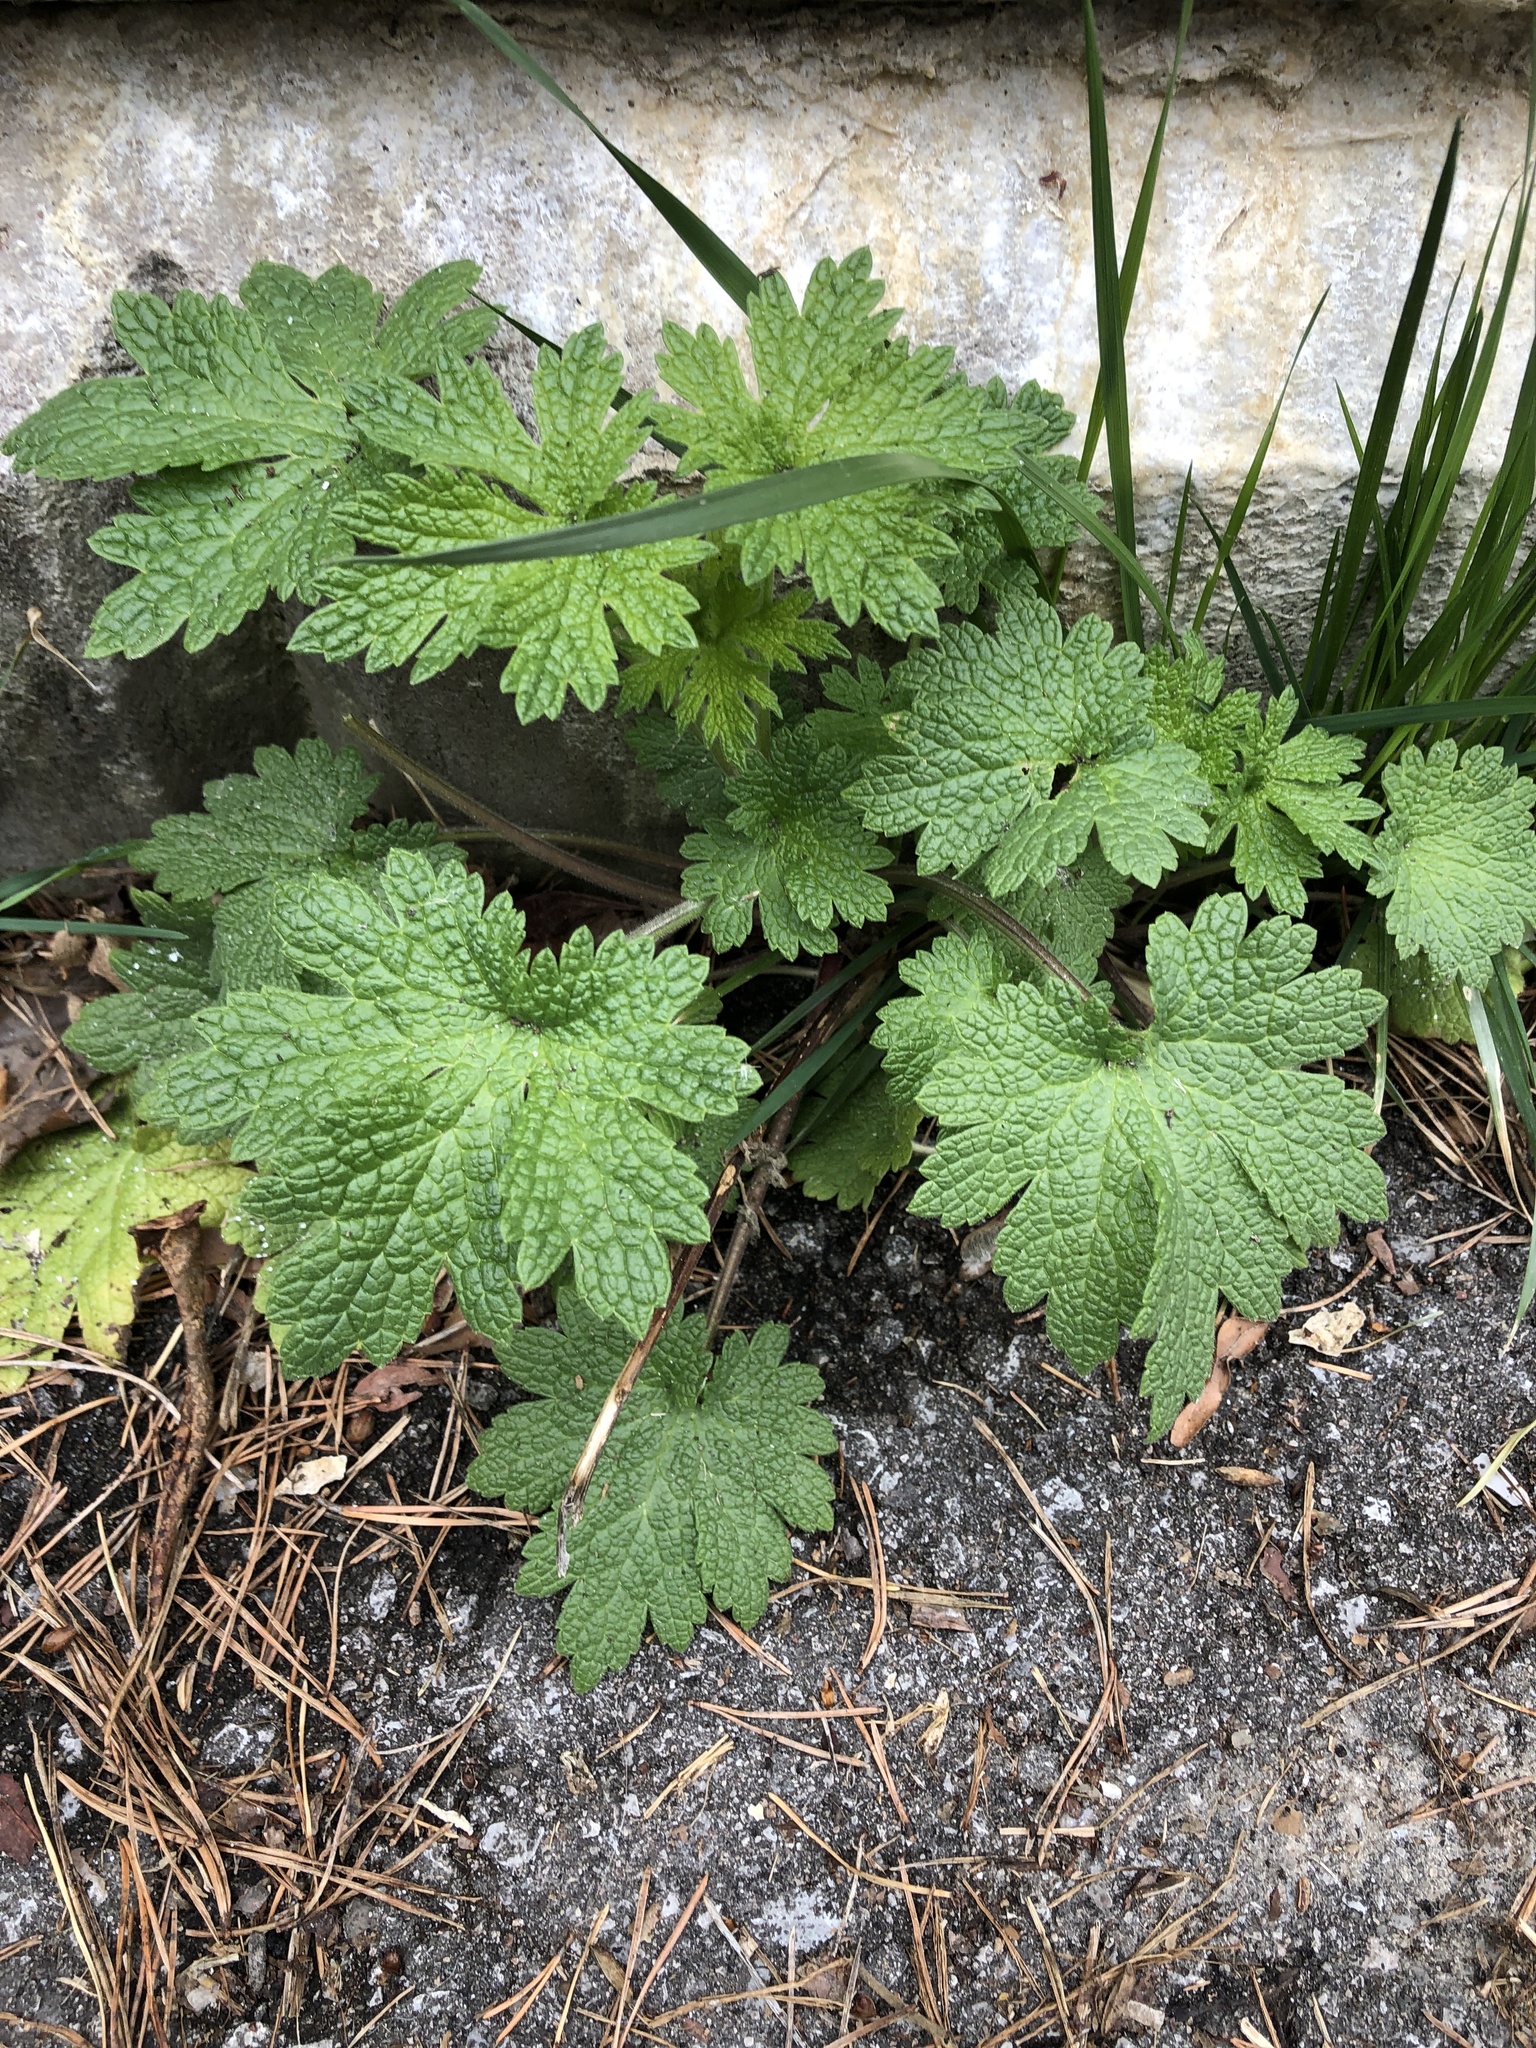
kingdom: Plantae
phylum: Tracheophyta
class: Magnoliopsida
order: Lamiales
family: Lamiaceae
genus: Leonurus
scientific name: Leonurus cardiaca
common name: Motherwort
